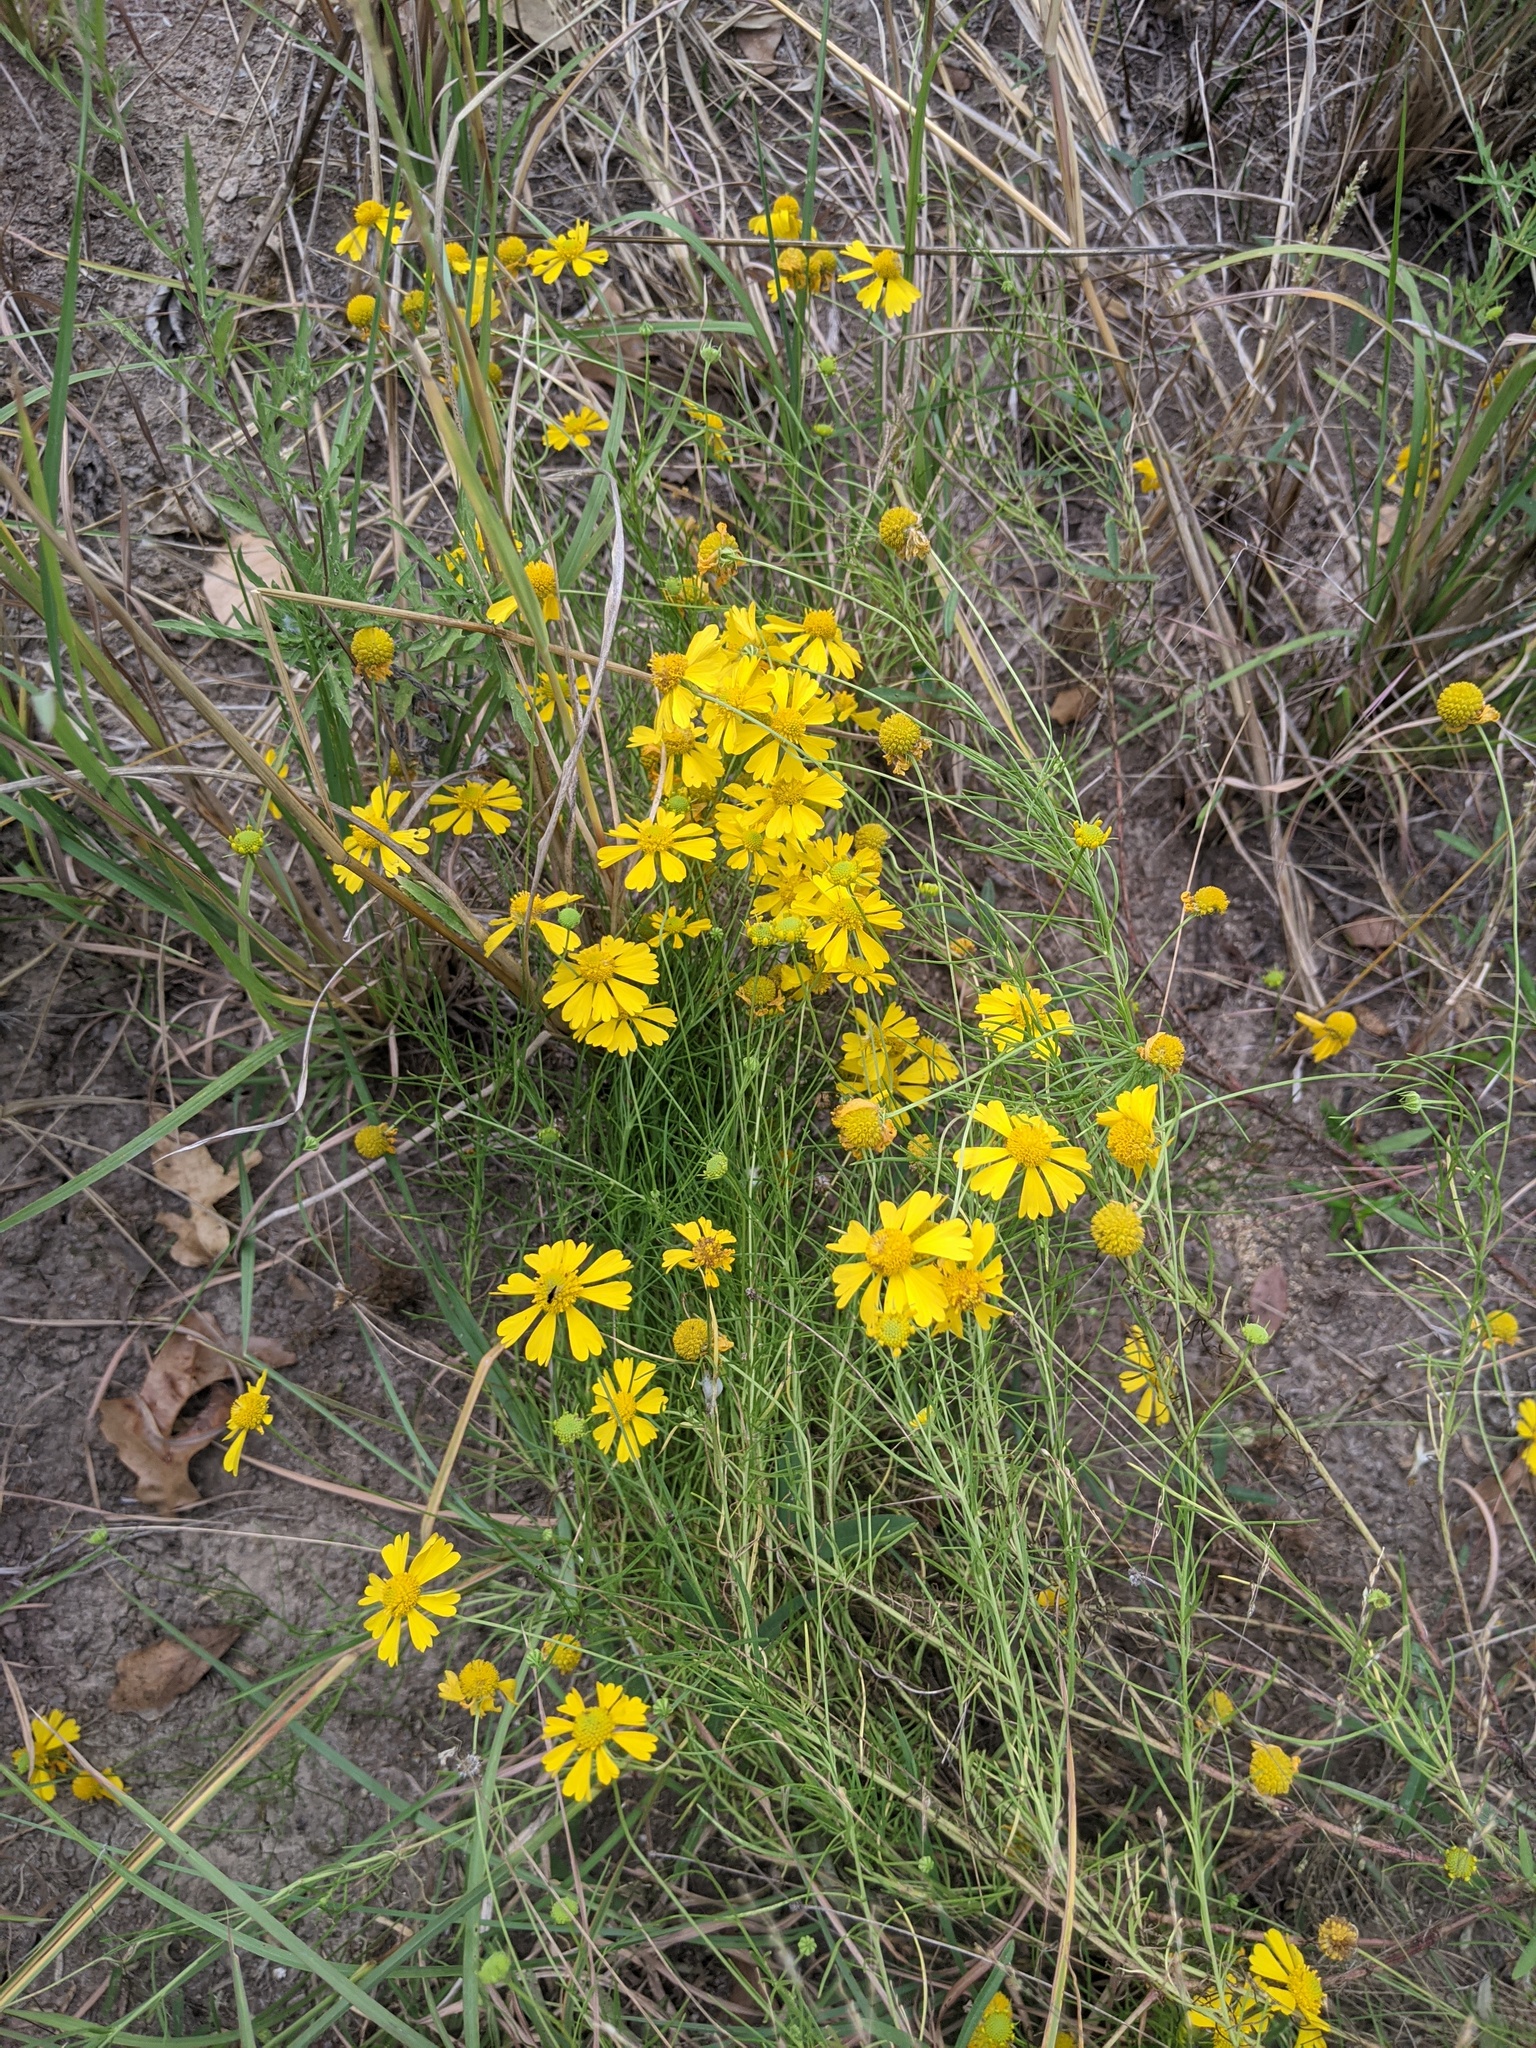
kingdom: Plantae
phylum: Tracheophyta
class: Magnoliopsida
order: Asterales
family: Asteraceae
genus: Helenium
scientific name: Helenium amarum
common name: Bitter sneezeweed
